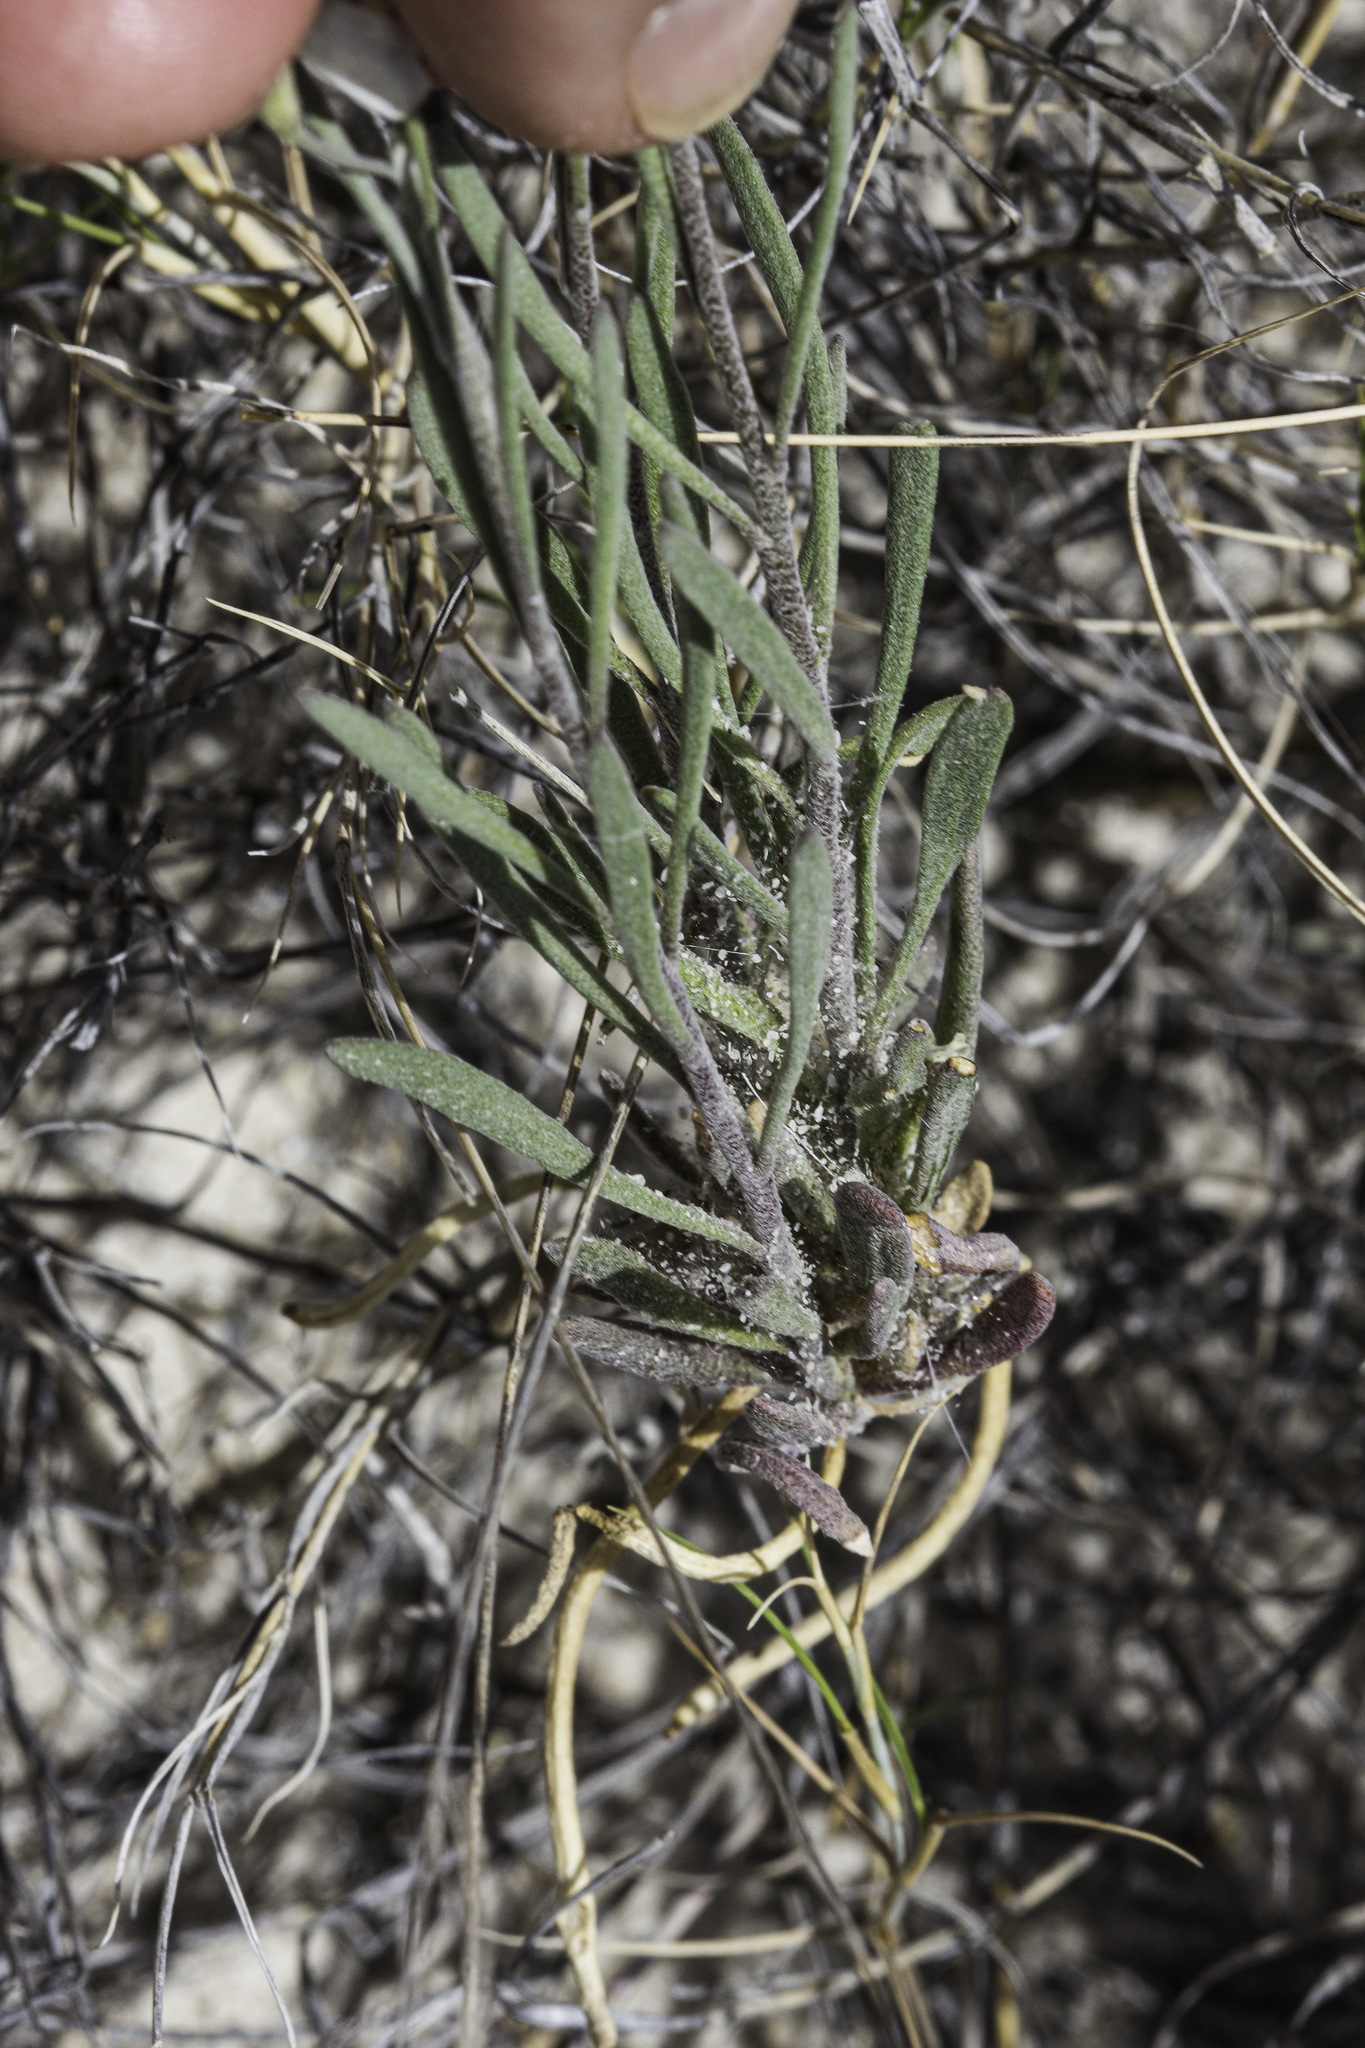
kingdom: Plantae
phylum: Tracheophyta
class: Magnoliopsida
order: Brassicales
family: Brassicaceae
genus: Nerisyrenia
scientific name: Nerisyrenia linearifolia
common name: White sands fan mustard
